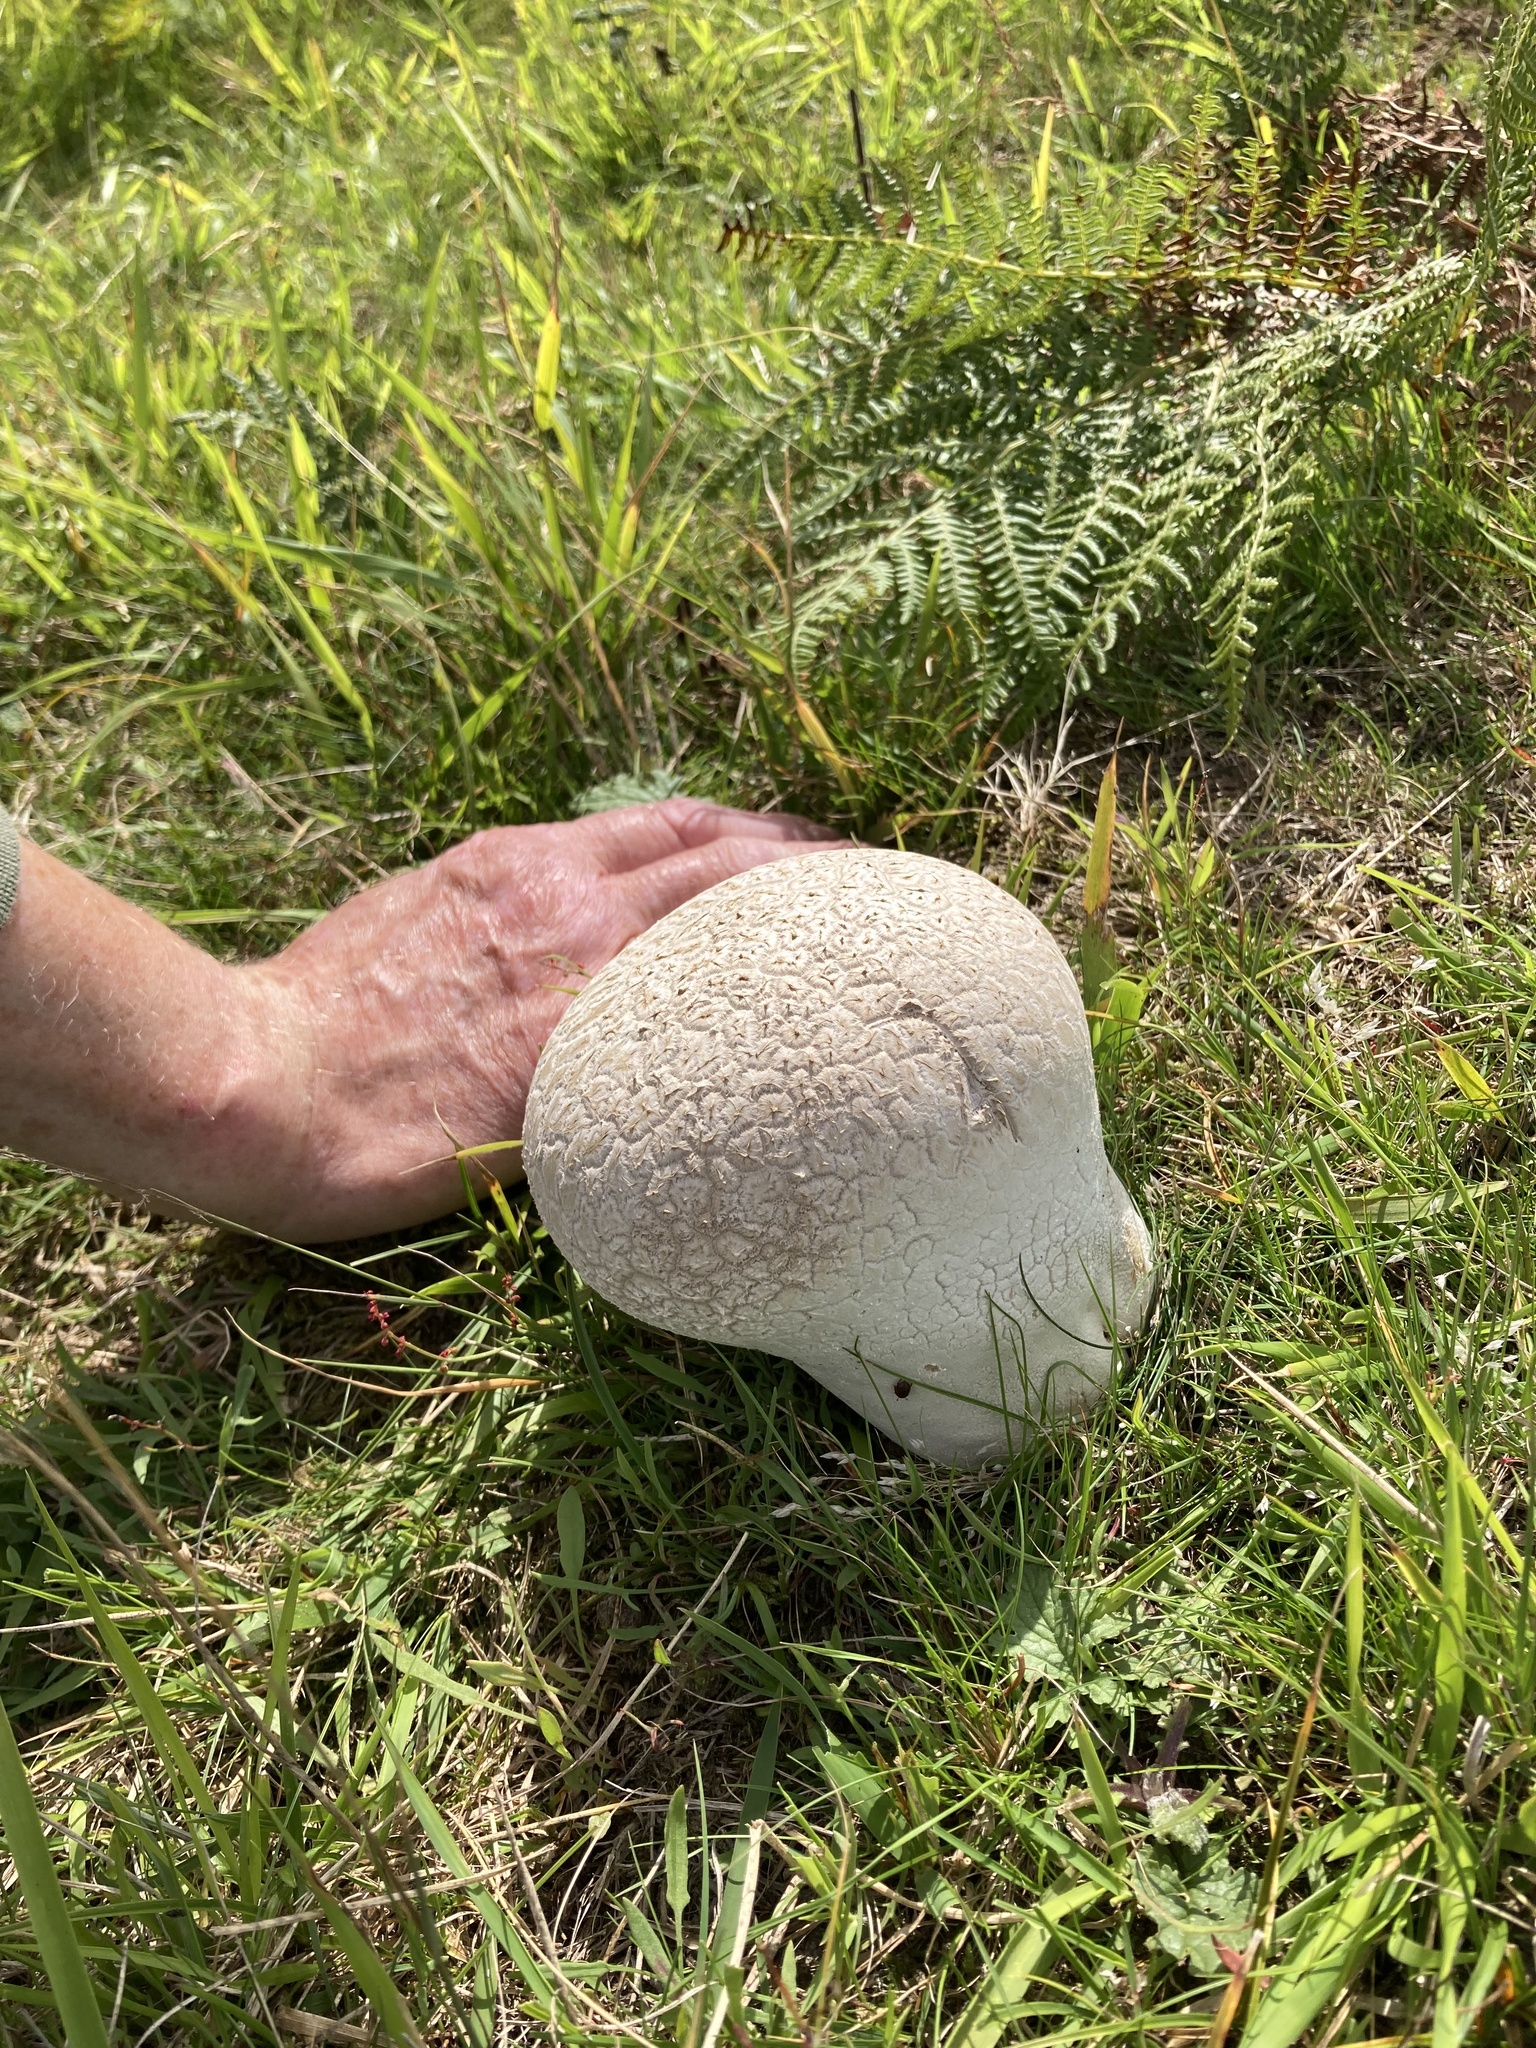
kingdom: Fungi
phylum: Basidiomycota
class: Agaricomycetes
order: Agaricales
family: Lycoperdaceae
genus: Bovistella
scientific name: Bovistella utriformis
